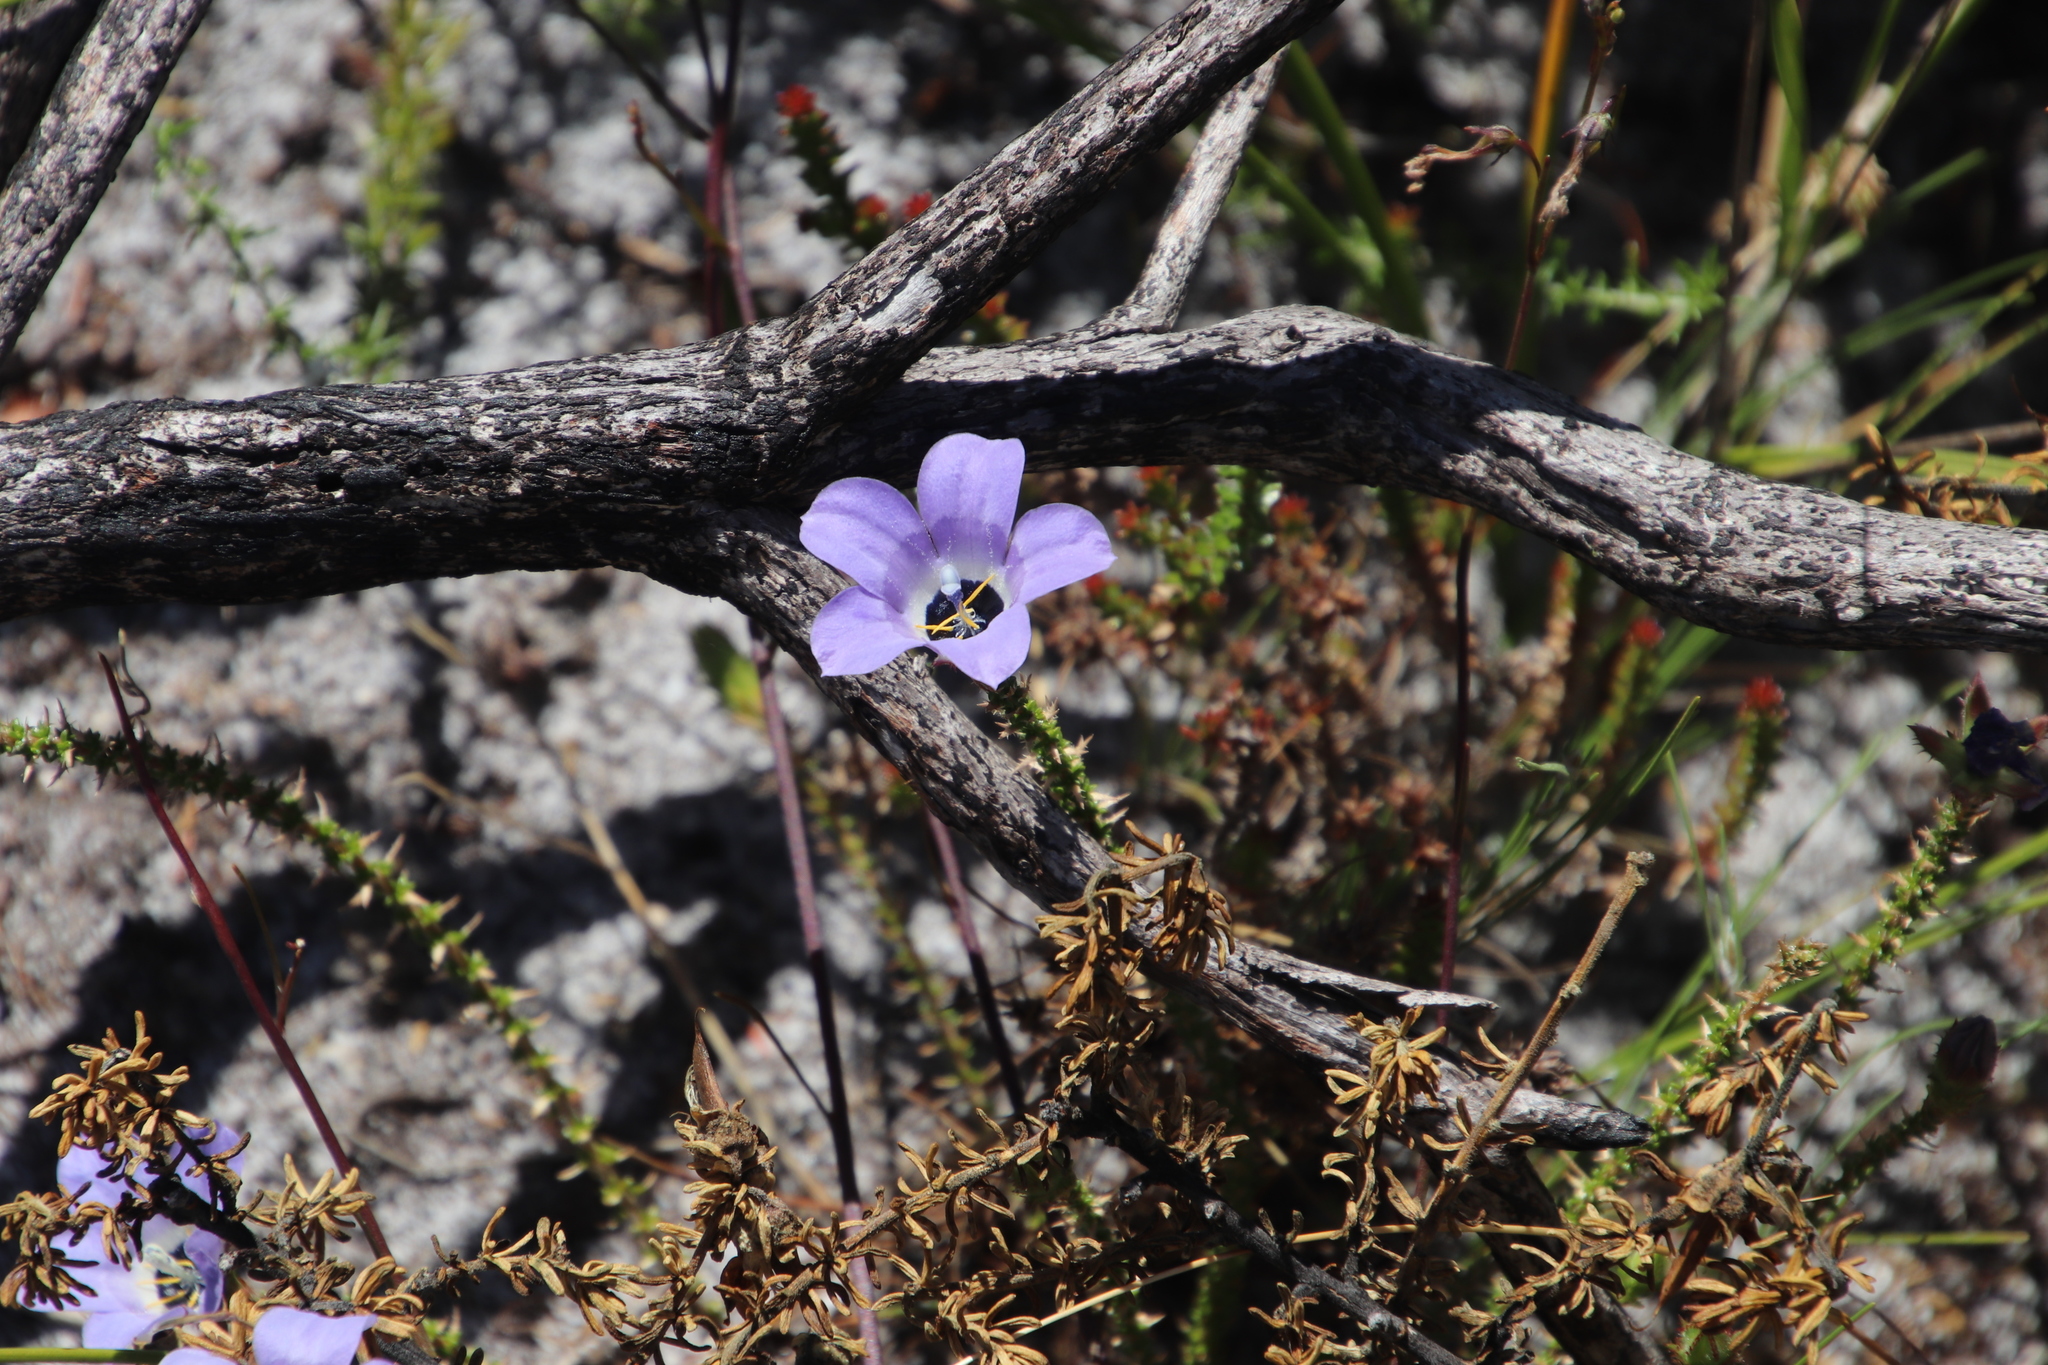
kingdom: Plantae
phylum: Tracheophyta
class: Magnoliopsida
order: Asterales
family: Campanulaceae
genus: Roella
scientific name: Roella triflora
